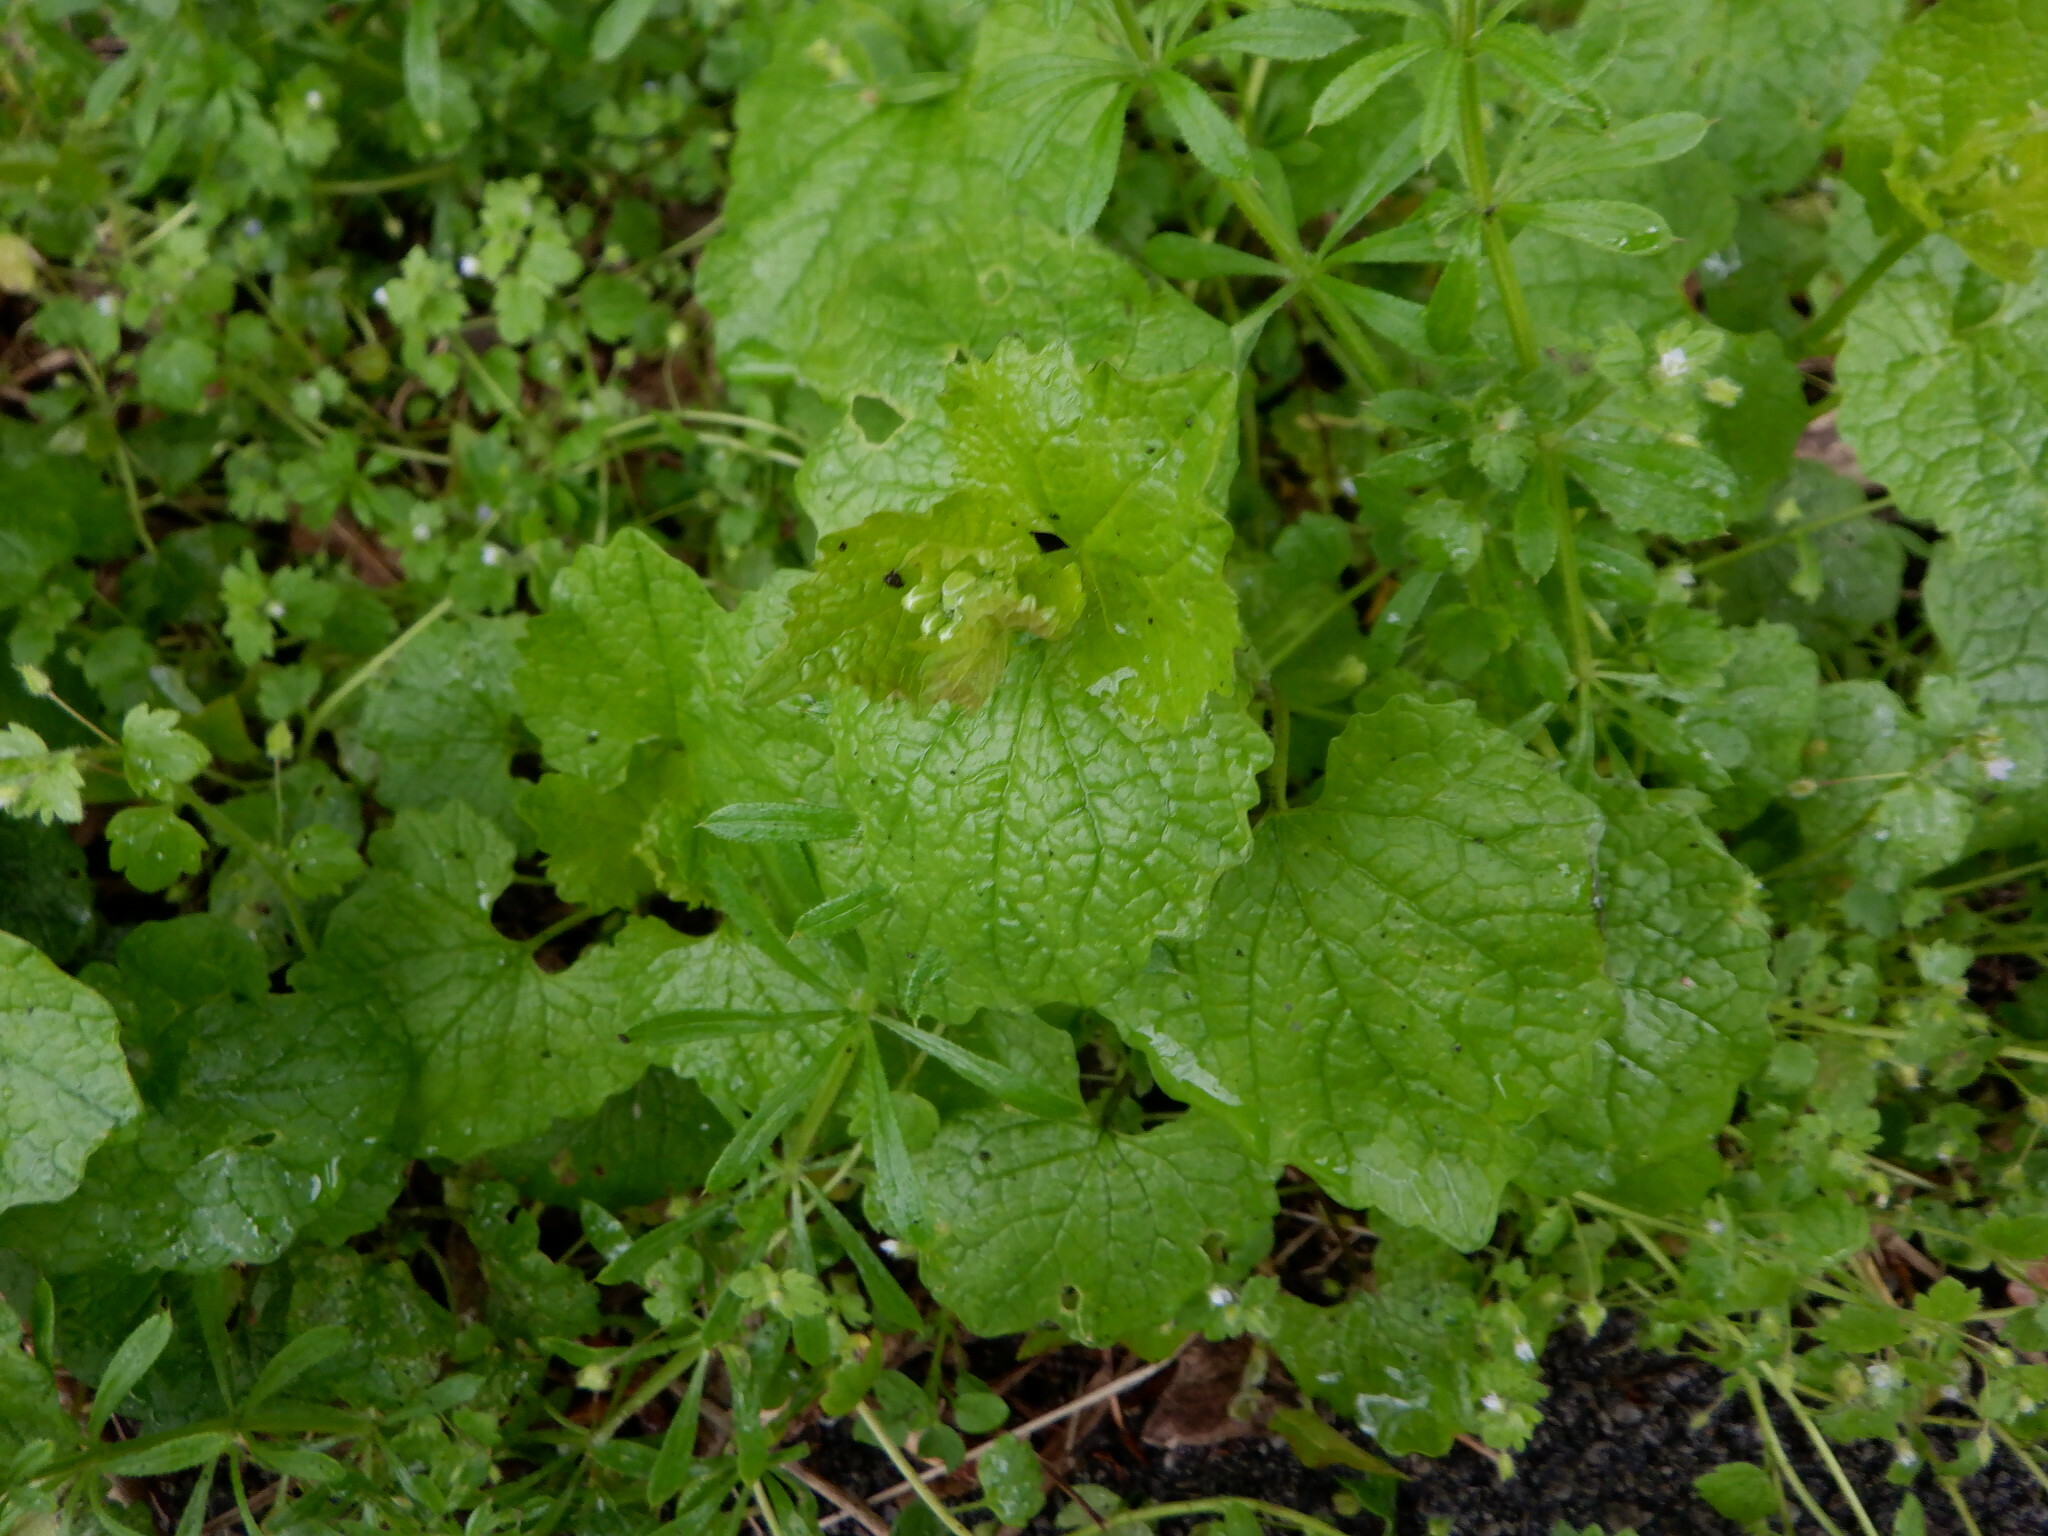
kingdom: Plantae
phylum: Tracheophyta
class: Magnoliopsida
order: Brassicales
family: Brassicaceae
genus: Alliaria
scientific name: Alliaria petiolata
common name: Garlic mustard
